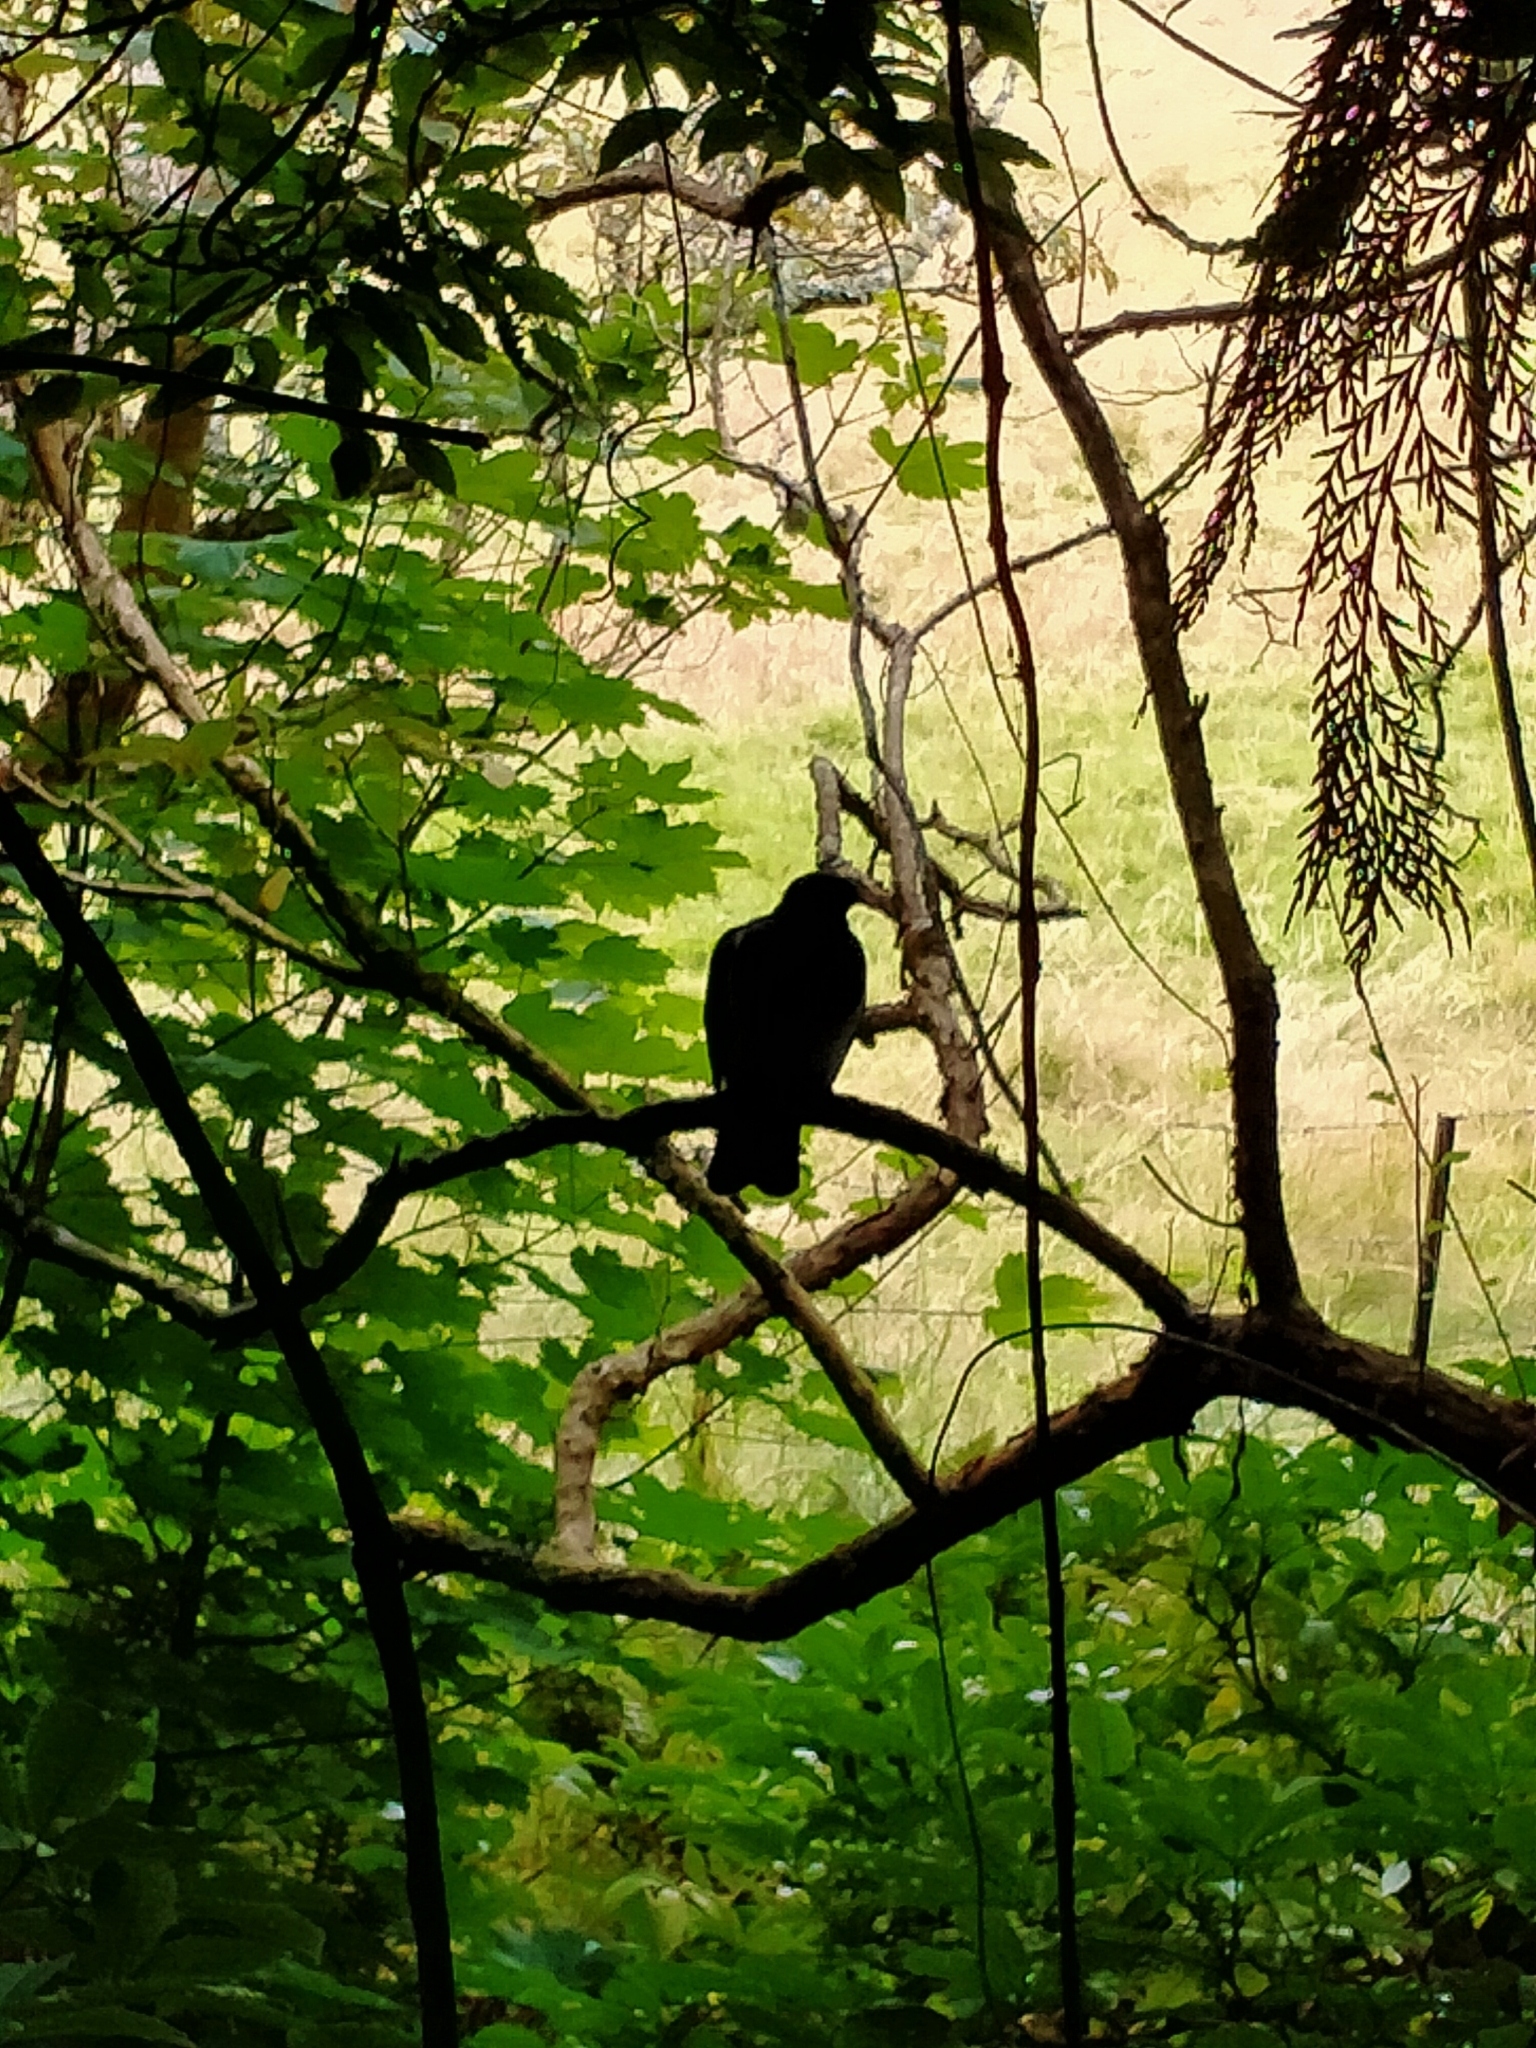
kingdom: Animalia
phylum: Chordata
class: Aves
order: Columbiformes
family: Columbidae
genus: Hemiphaga
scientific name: Hemiphaga novaeseelandiae
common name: New zealand pigeon
